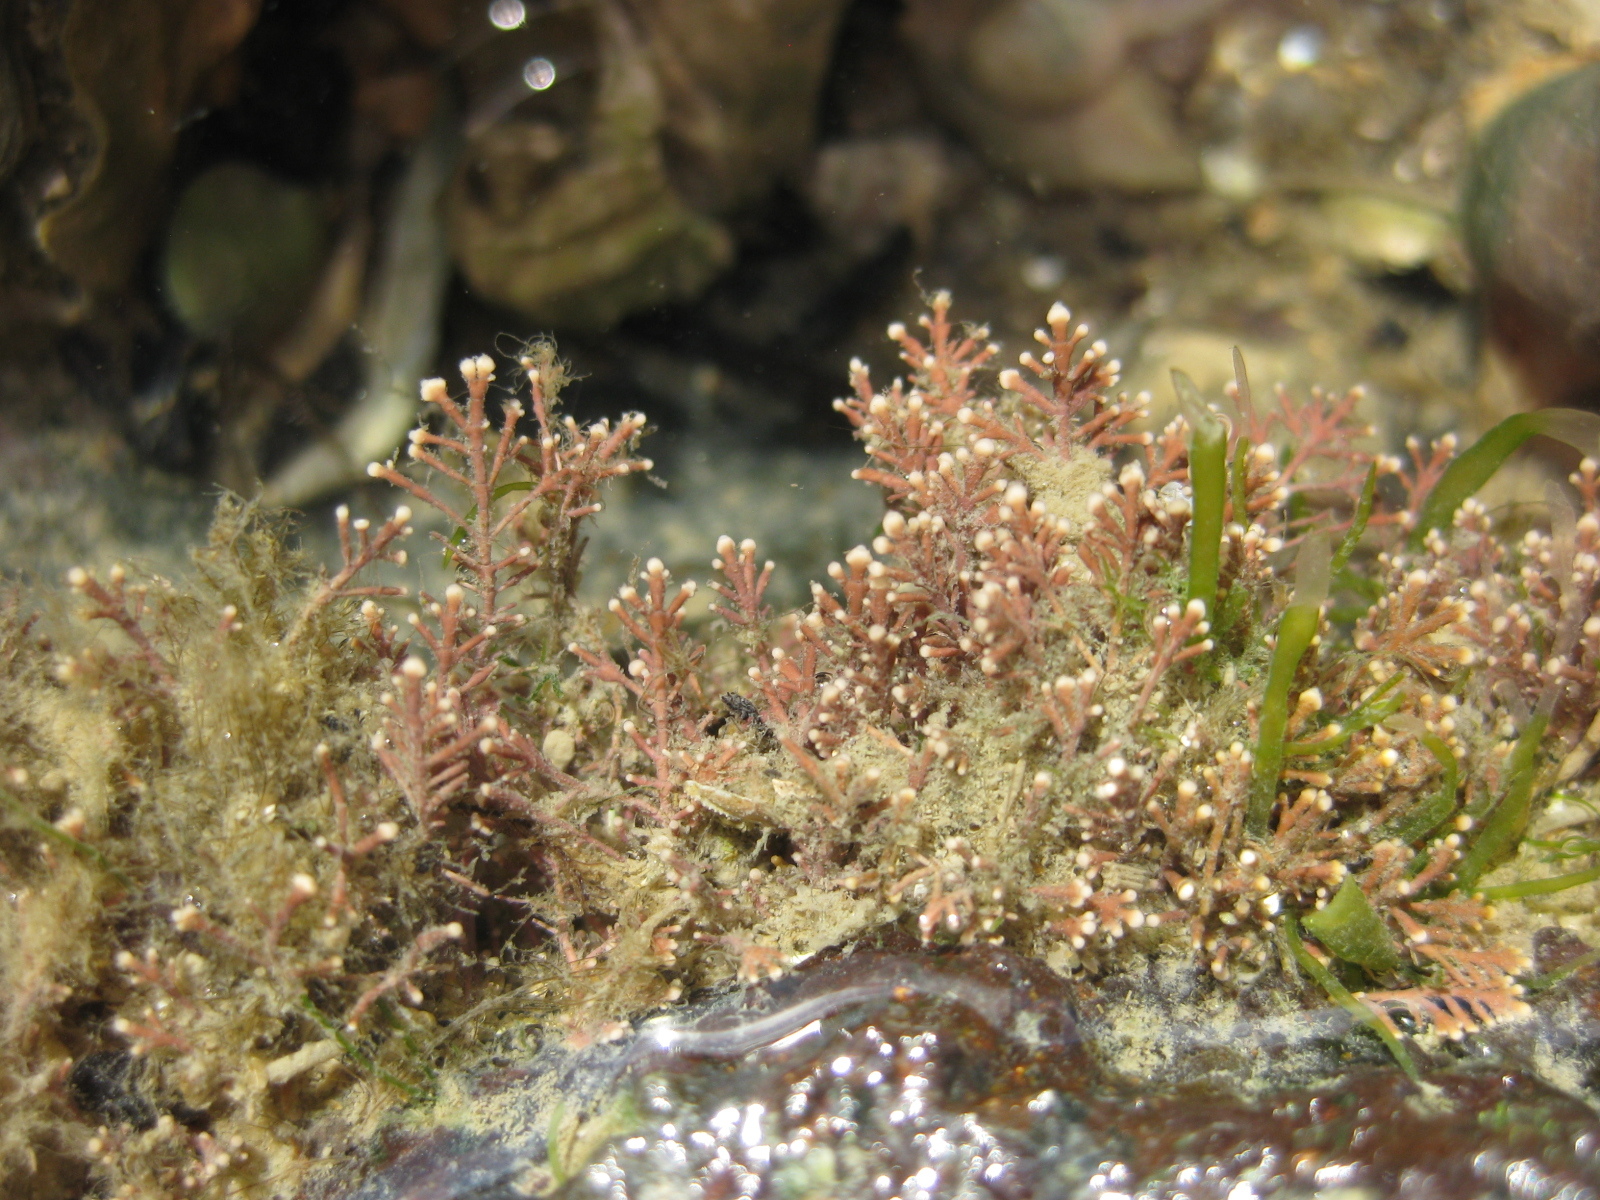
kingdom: Plantae
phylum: Rhodophyta
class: Florideophyceae
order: Corallinales
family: Corallinaceae
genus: Corallina
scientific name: Corallina officinalis
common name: Coral weed
